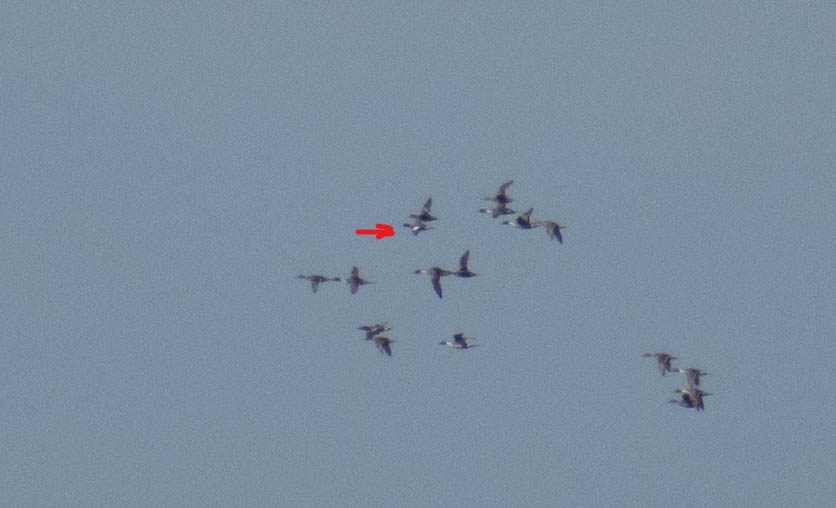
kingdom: Animalia
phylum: Chordata
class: Aves
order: Anseriformes
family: Anatidae
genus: Mareca
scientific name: Mareca penelope
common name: Eurasian wigeon
